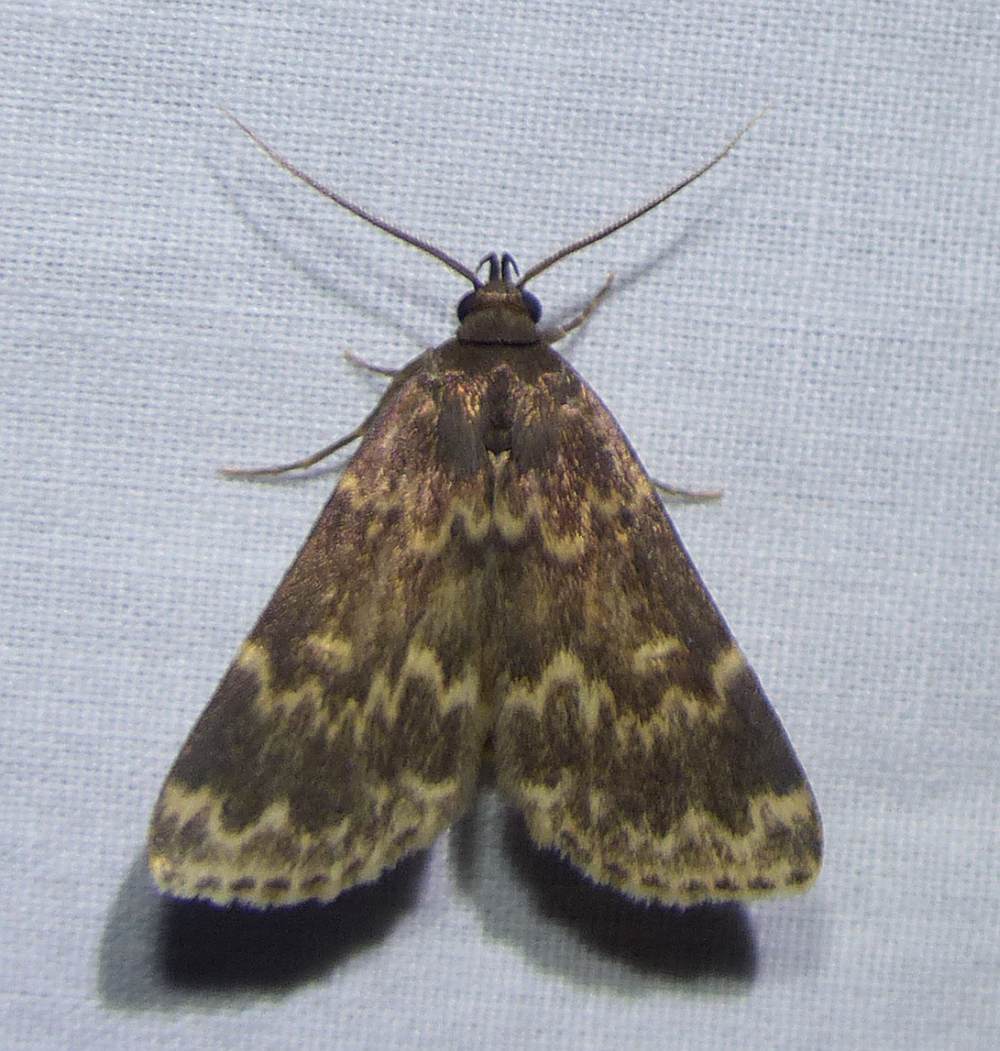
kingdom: Animalia
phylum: Arthropoda
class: Insecta
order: Lepidoptera
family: Erebidae
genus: Idia
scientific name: Idia lubricalis
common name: Twin-striped tabby
